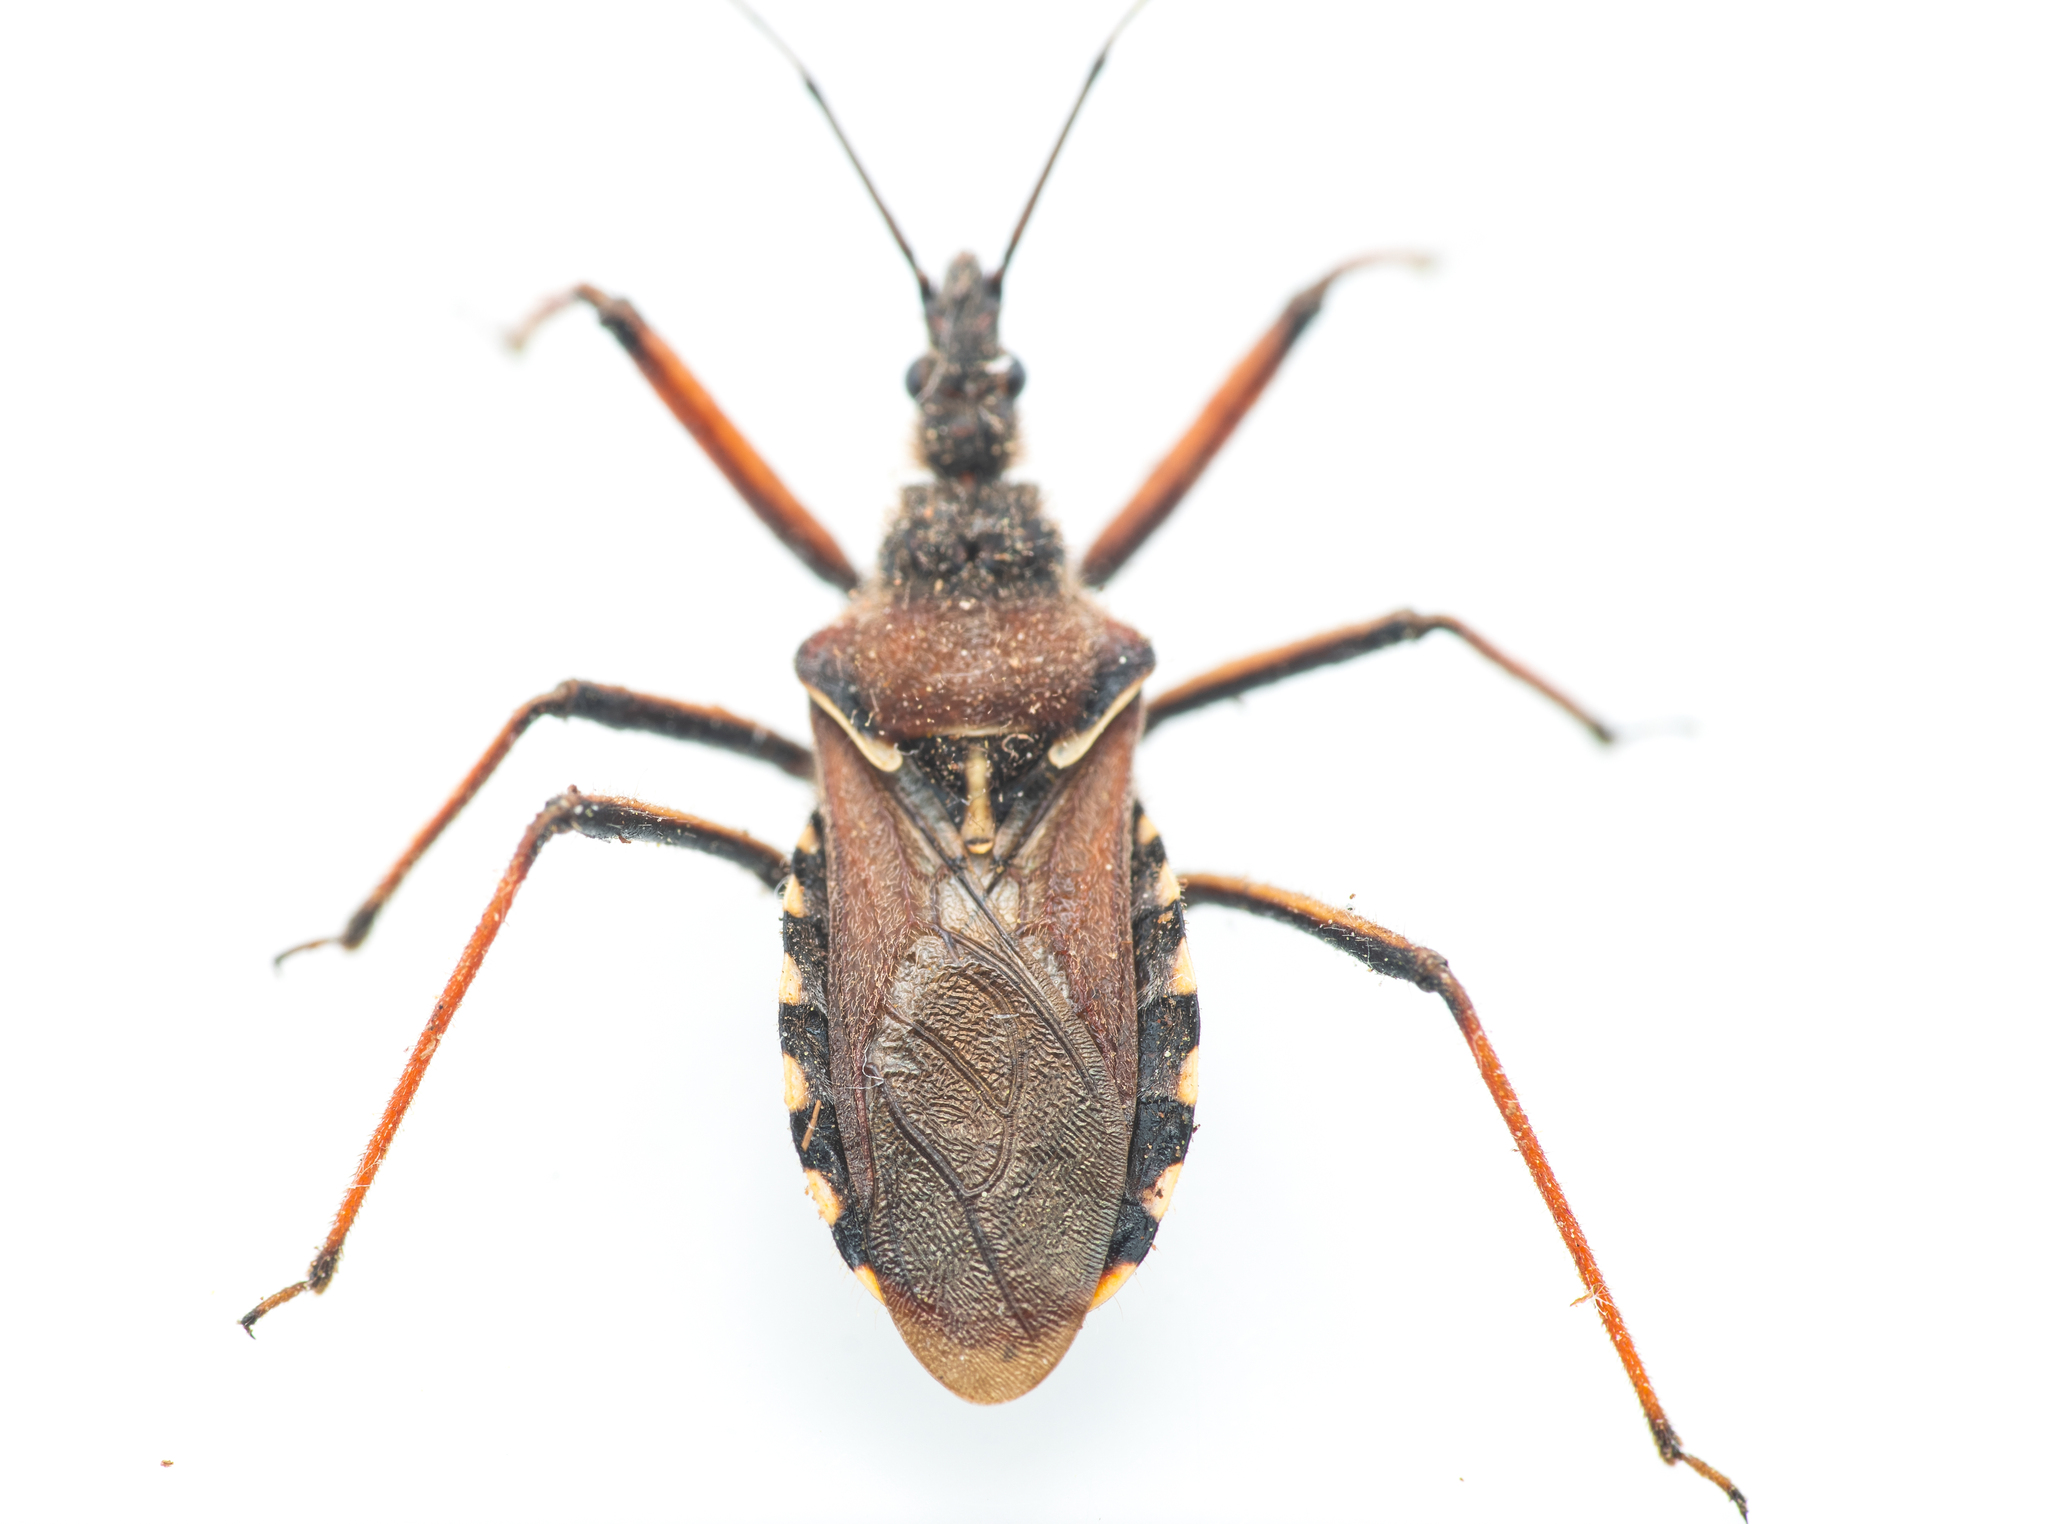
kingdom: Animalia
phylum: Arthropoda
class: Insecta
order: Hemiptera
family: Reduviidae
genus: Rhynocoris
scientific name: Rhynocoris erythropus
